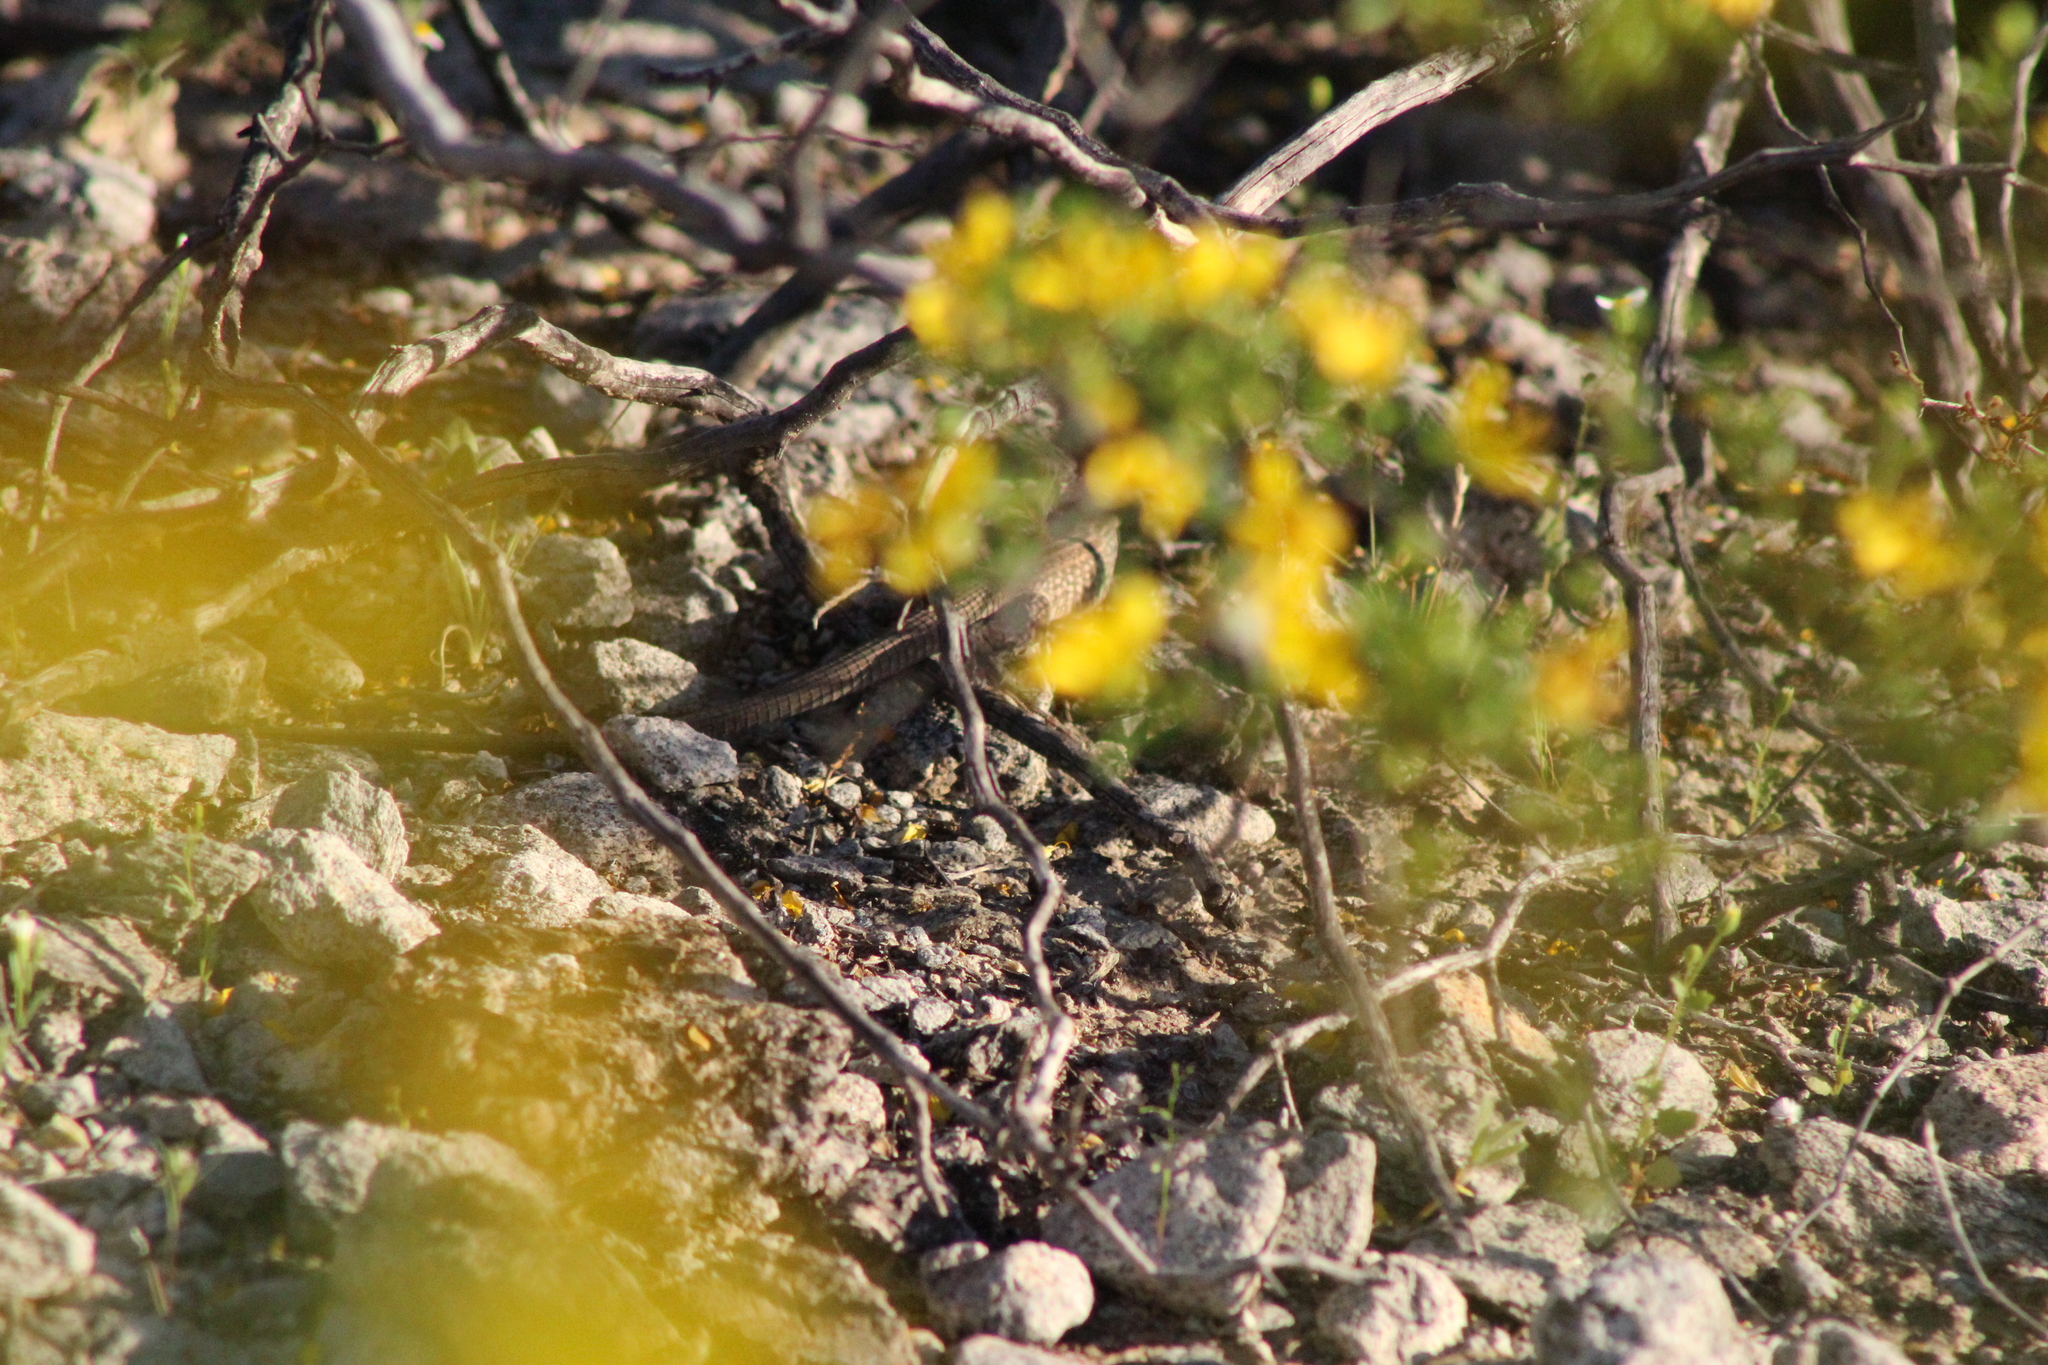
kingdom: Animalia
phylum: Chordata
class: Squamata
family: Teiidae
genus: Aspidoscelis
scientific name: Aspidoscelis tigris
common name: Tiger whiptail
